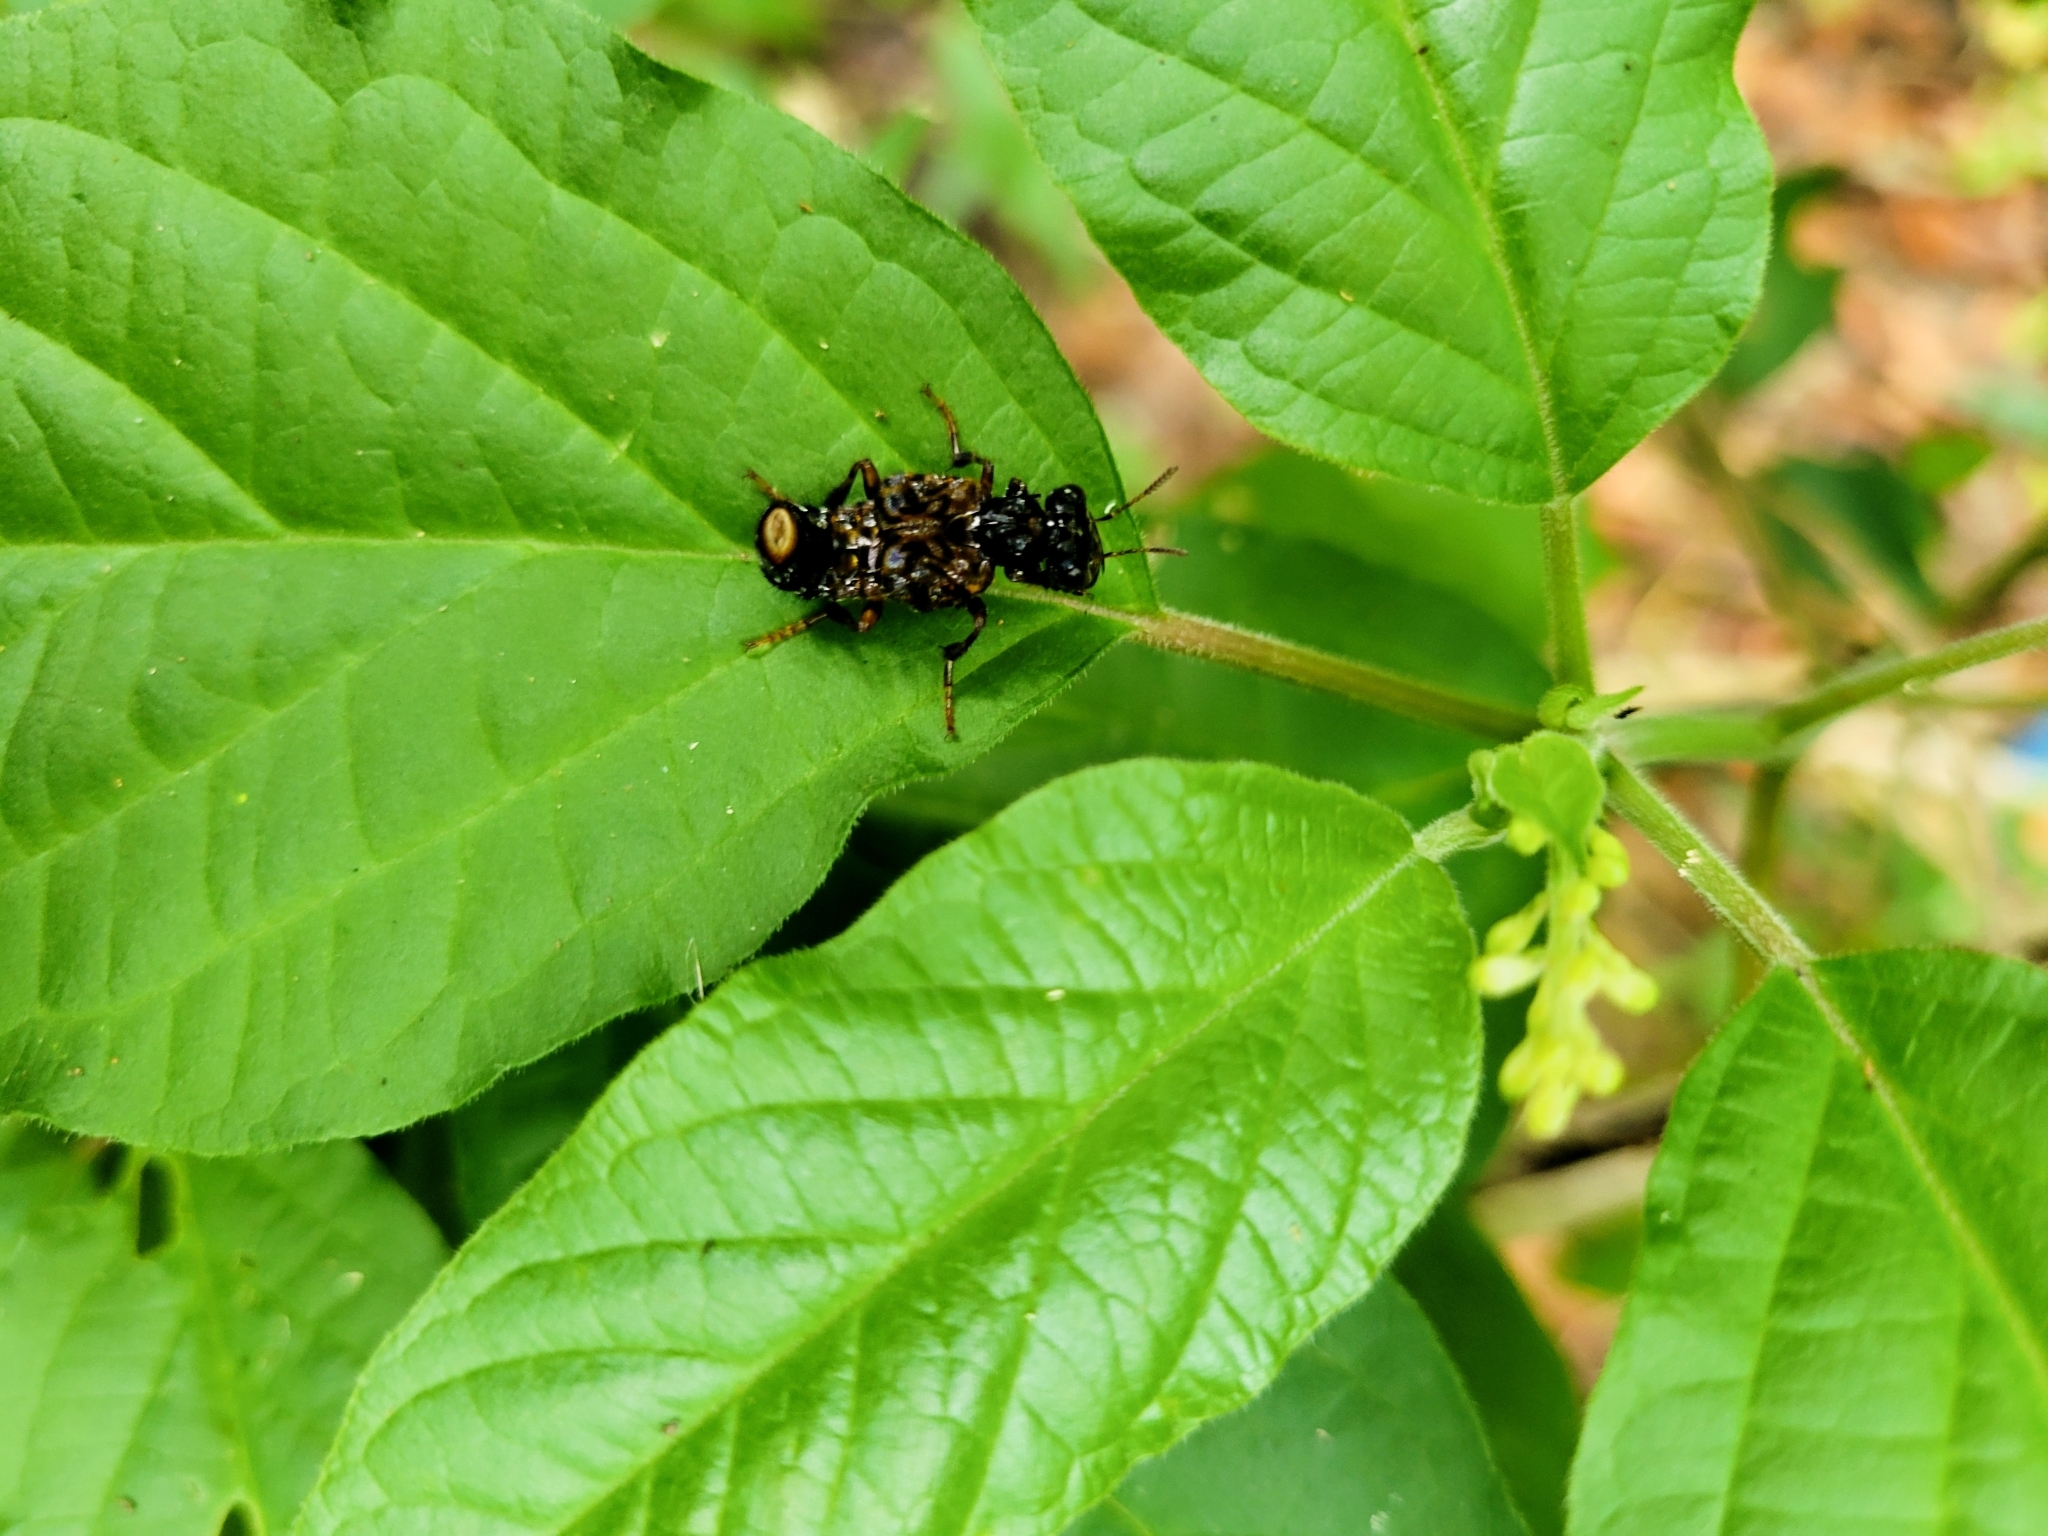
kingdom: Animalia
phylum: Arthropoda
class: Insecta
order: Coleoptera
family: Staphylinidae
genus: Leistotrophus
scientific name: Leistotrophus versicolor
